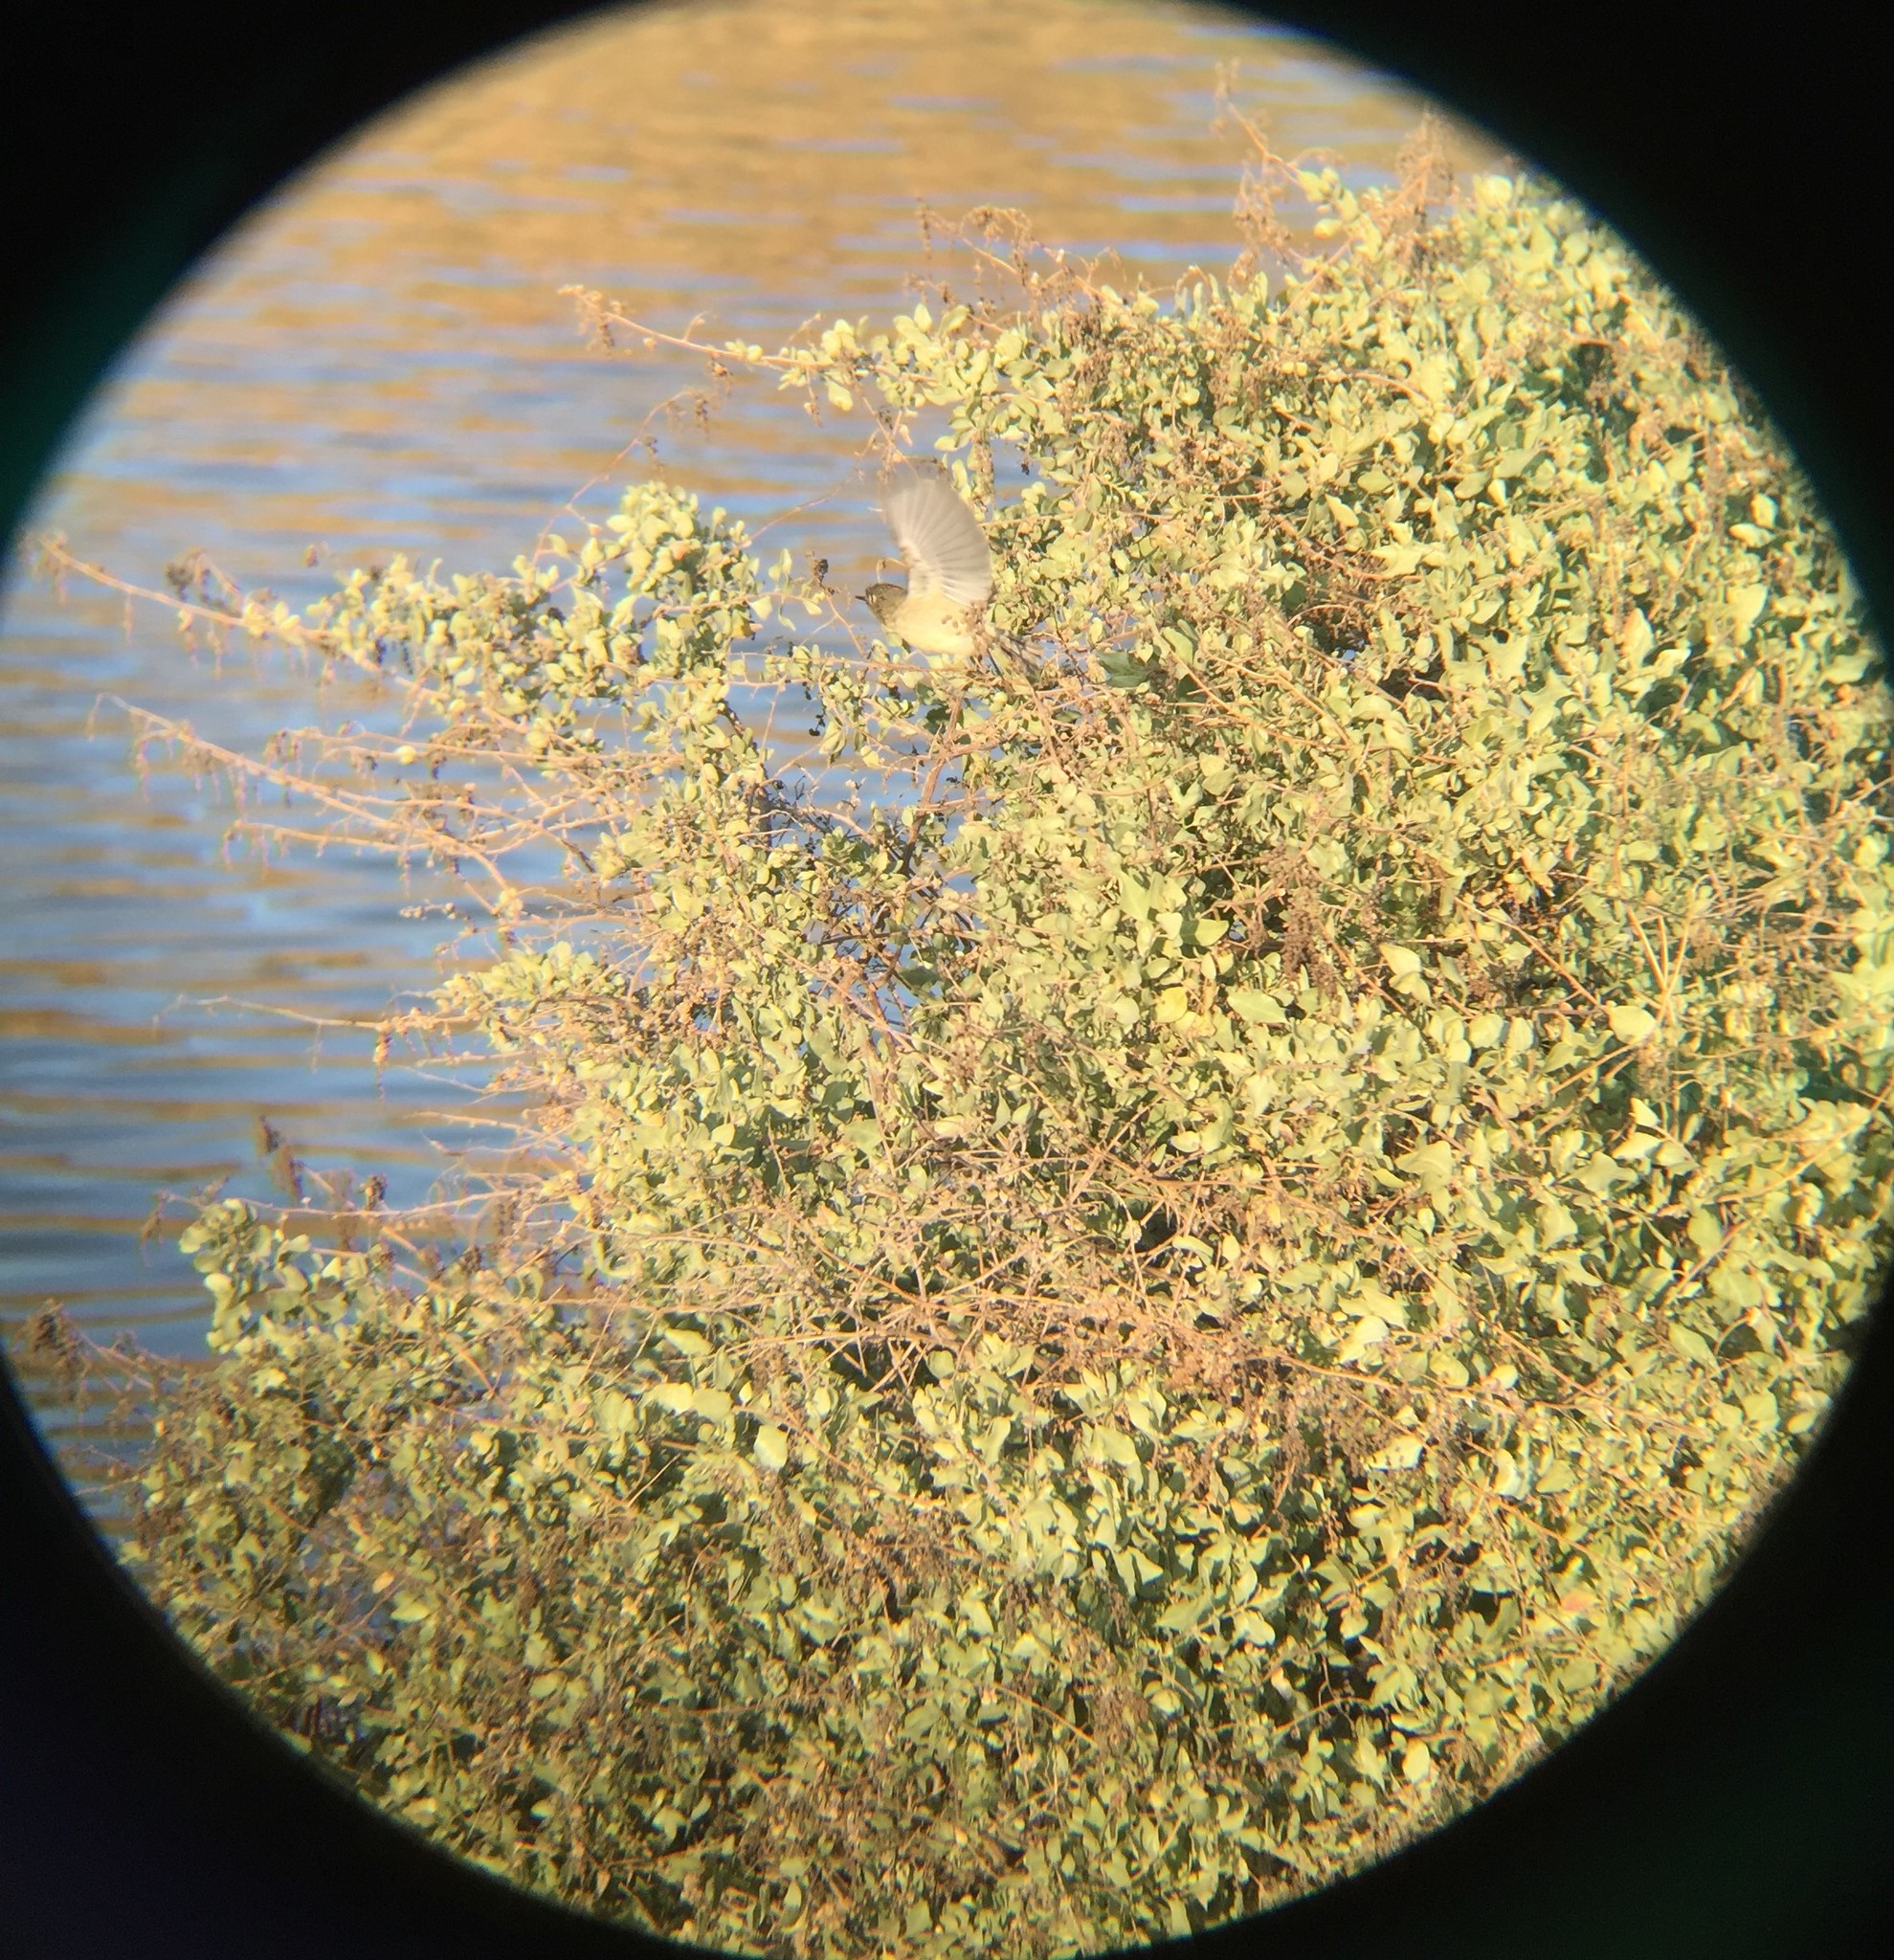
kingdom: Animalia
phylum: Chordata
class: Aves
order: Passeriformes
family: Regulidae
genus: Regulus
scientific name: Regulus calendula
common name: Ruby-crowned kinglet
